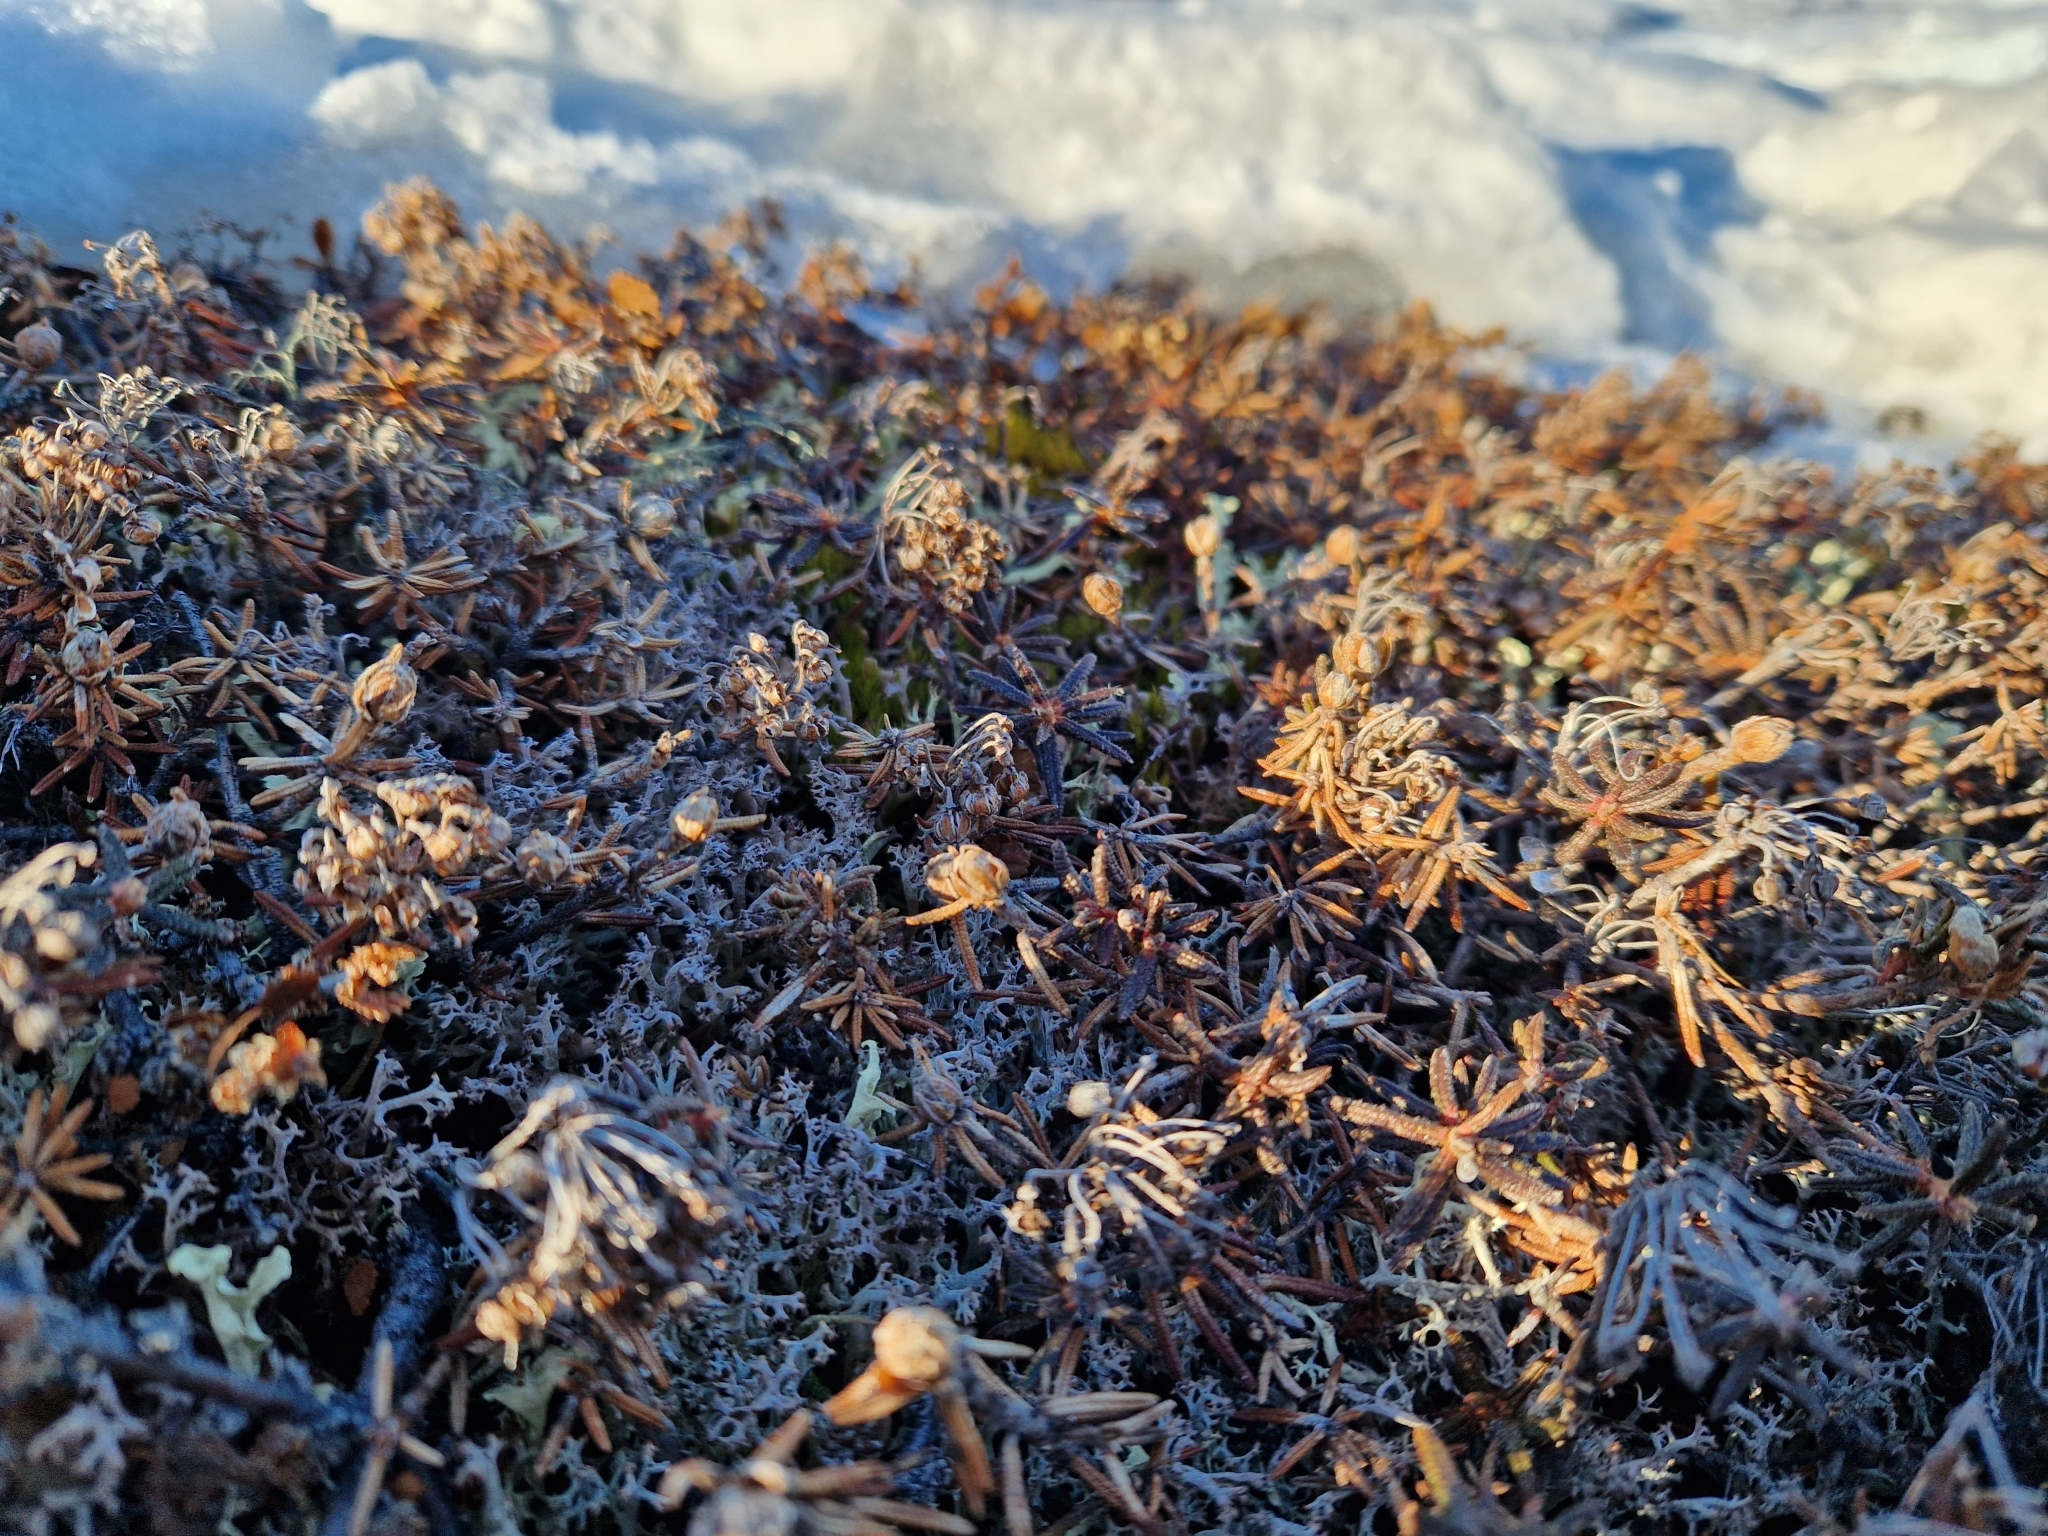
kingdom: Plantae
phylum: Tracheophyta
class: Magnoliopsida
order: Ericales
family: Ericaceae
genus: Rhododendron
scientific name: Rhododendron tomentosum
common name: Marsh labrador tea
